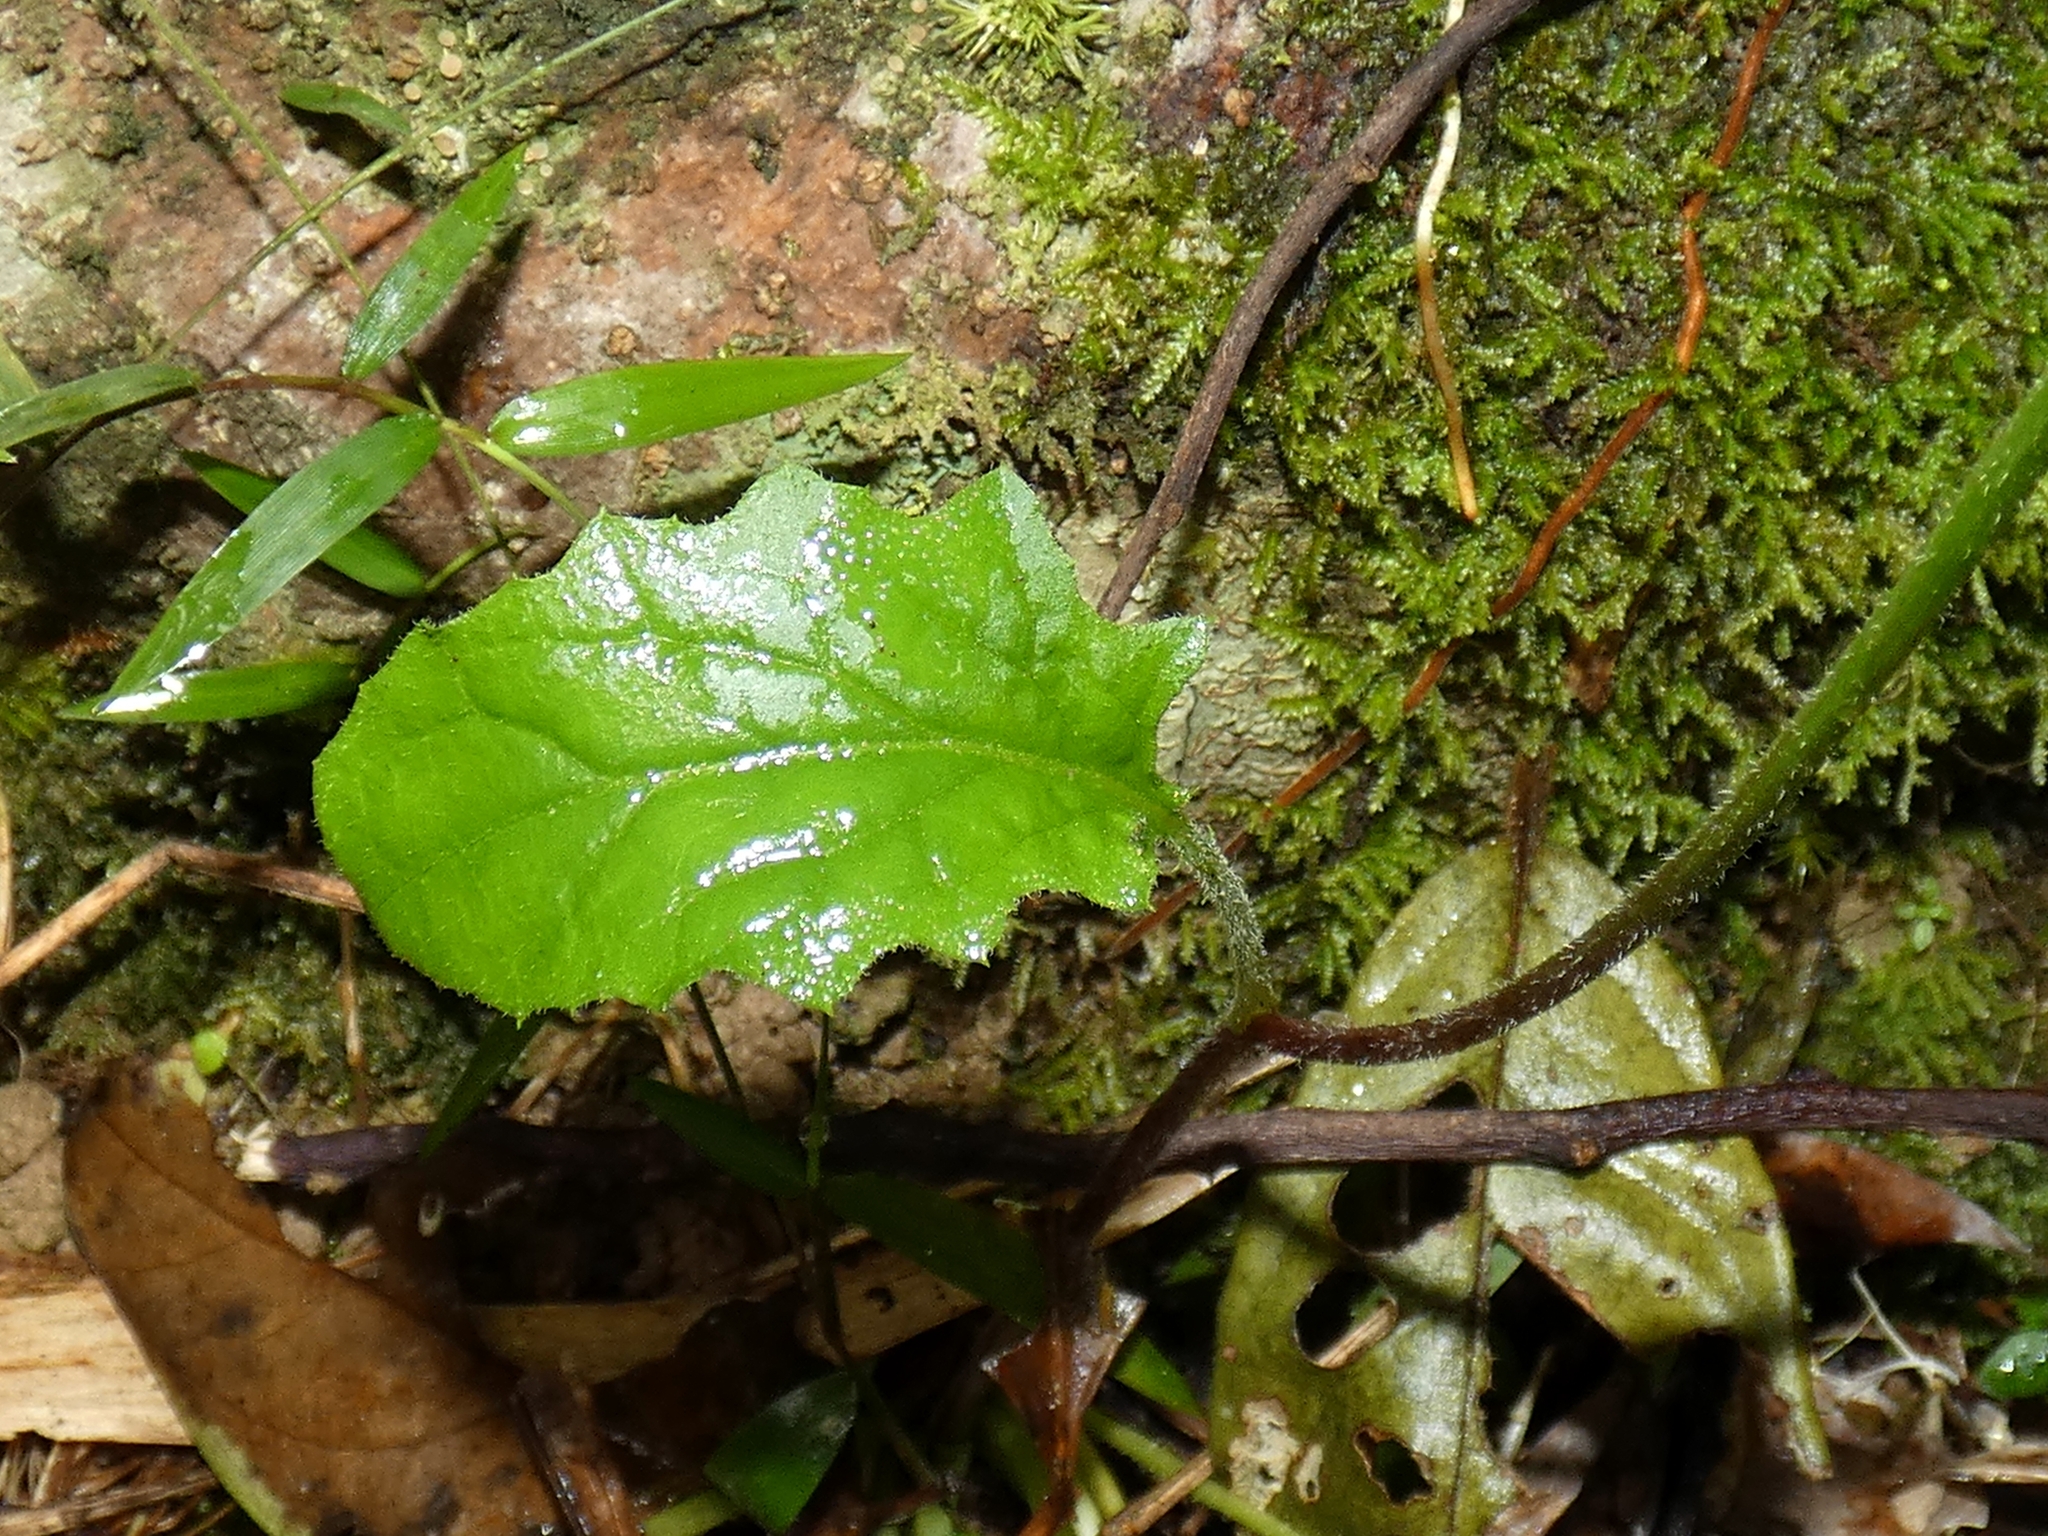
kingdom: Plantae
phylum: Tracheophyta
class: Magnoliopsida
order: Asterales
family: Asteraceae
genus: Youngia
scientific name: Youngia japonica
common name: Oriental false hawksbeard
